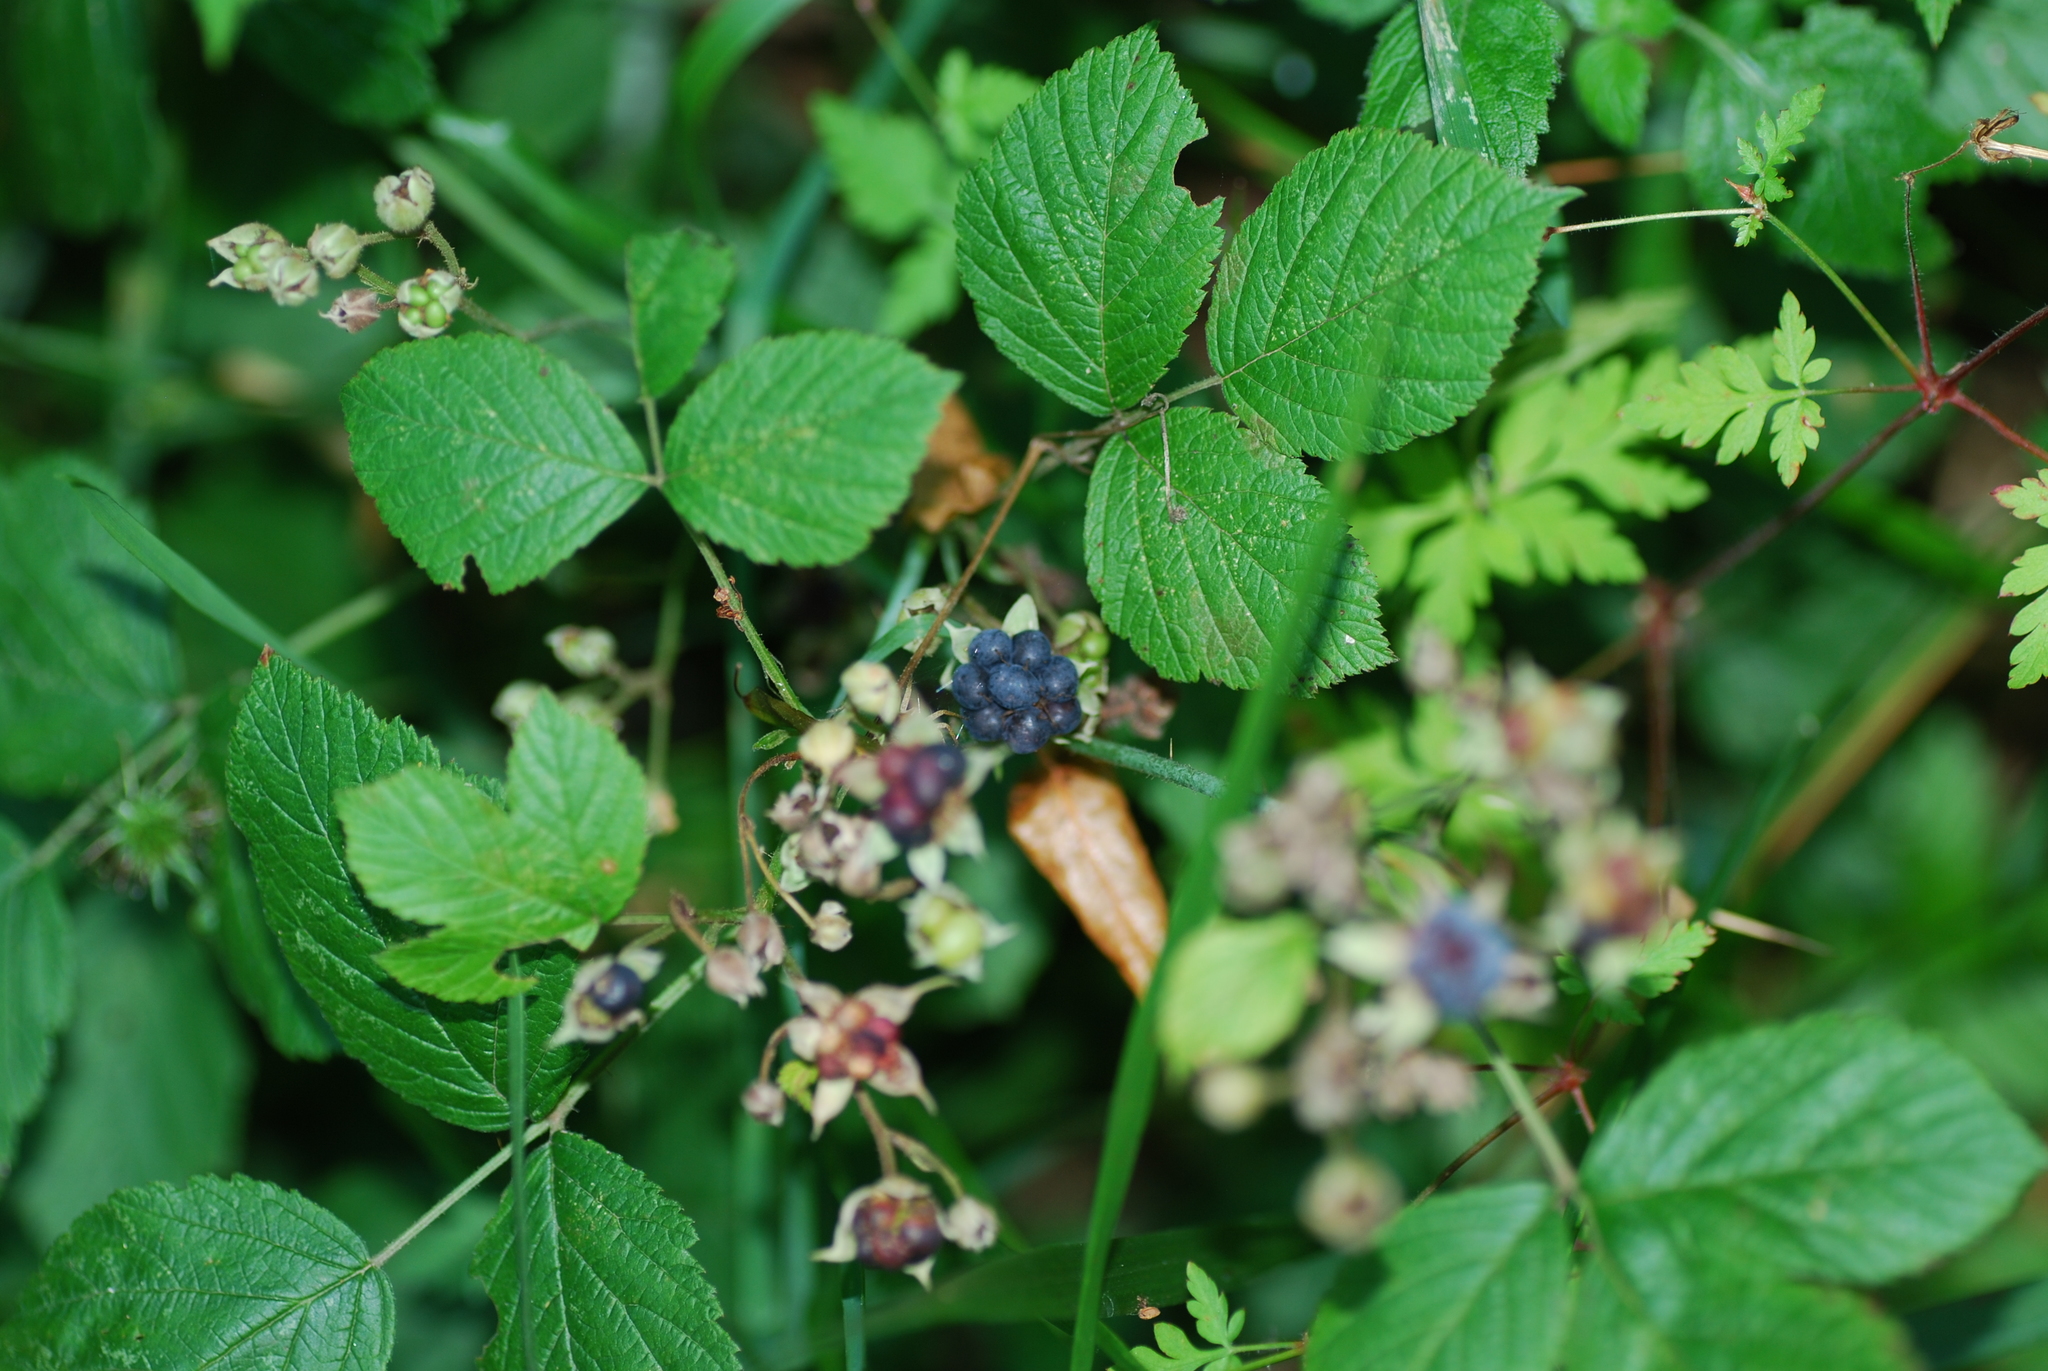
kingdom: Plantae
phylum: Tracheophyta
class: Magnoliopsida
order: Rosales
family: Rosaceae
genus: Rubus
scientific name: Rubus caesius
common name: Dewberry
